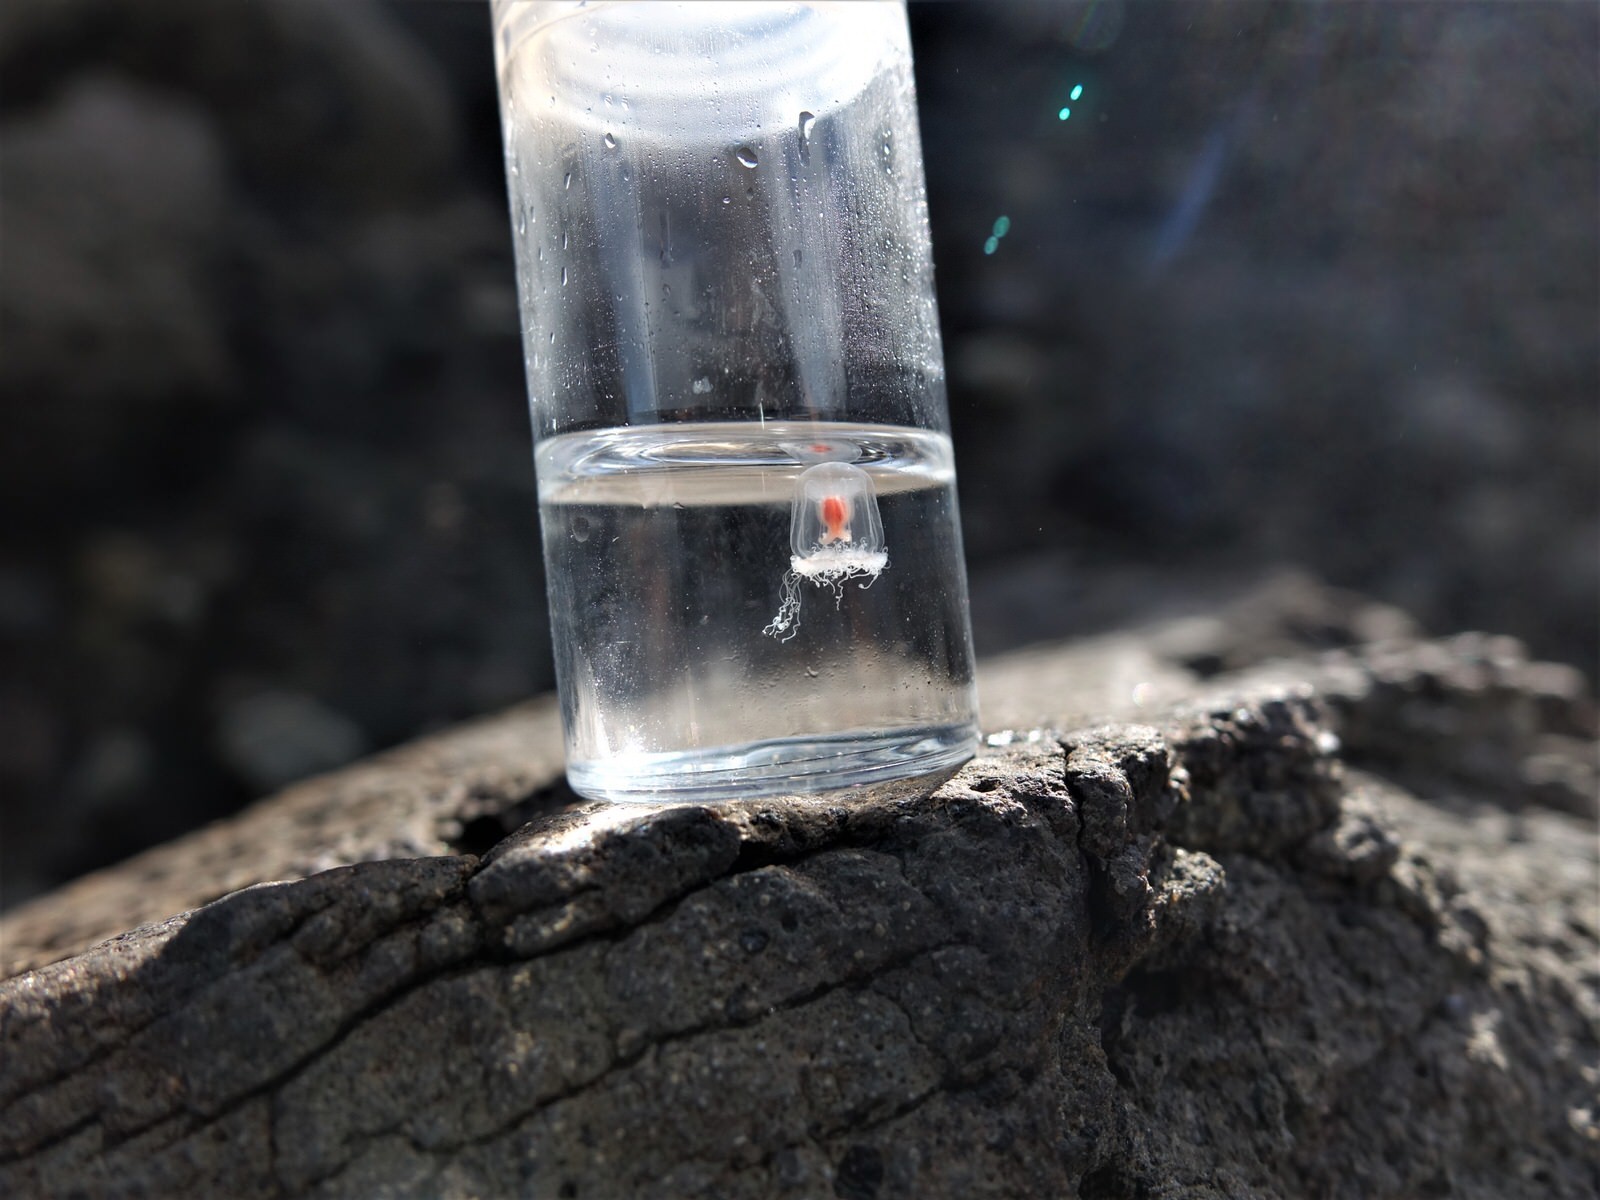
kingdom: Animalia
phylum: Cnidaria
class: Hydrozoa
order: Anthoathecata
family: Oceaniidae
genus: Turritopsis
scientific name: Turritopsis rubra
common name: Crimson jelly
